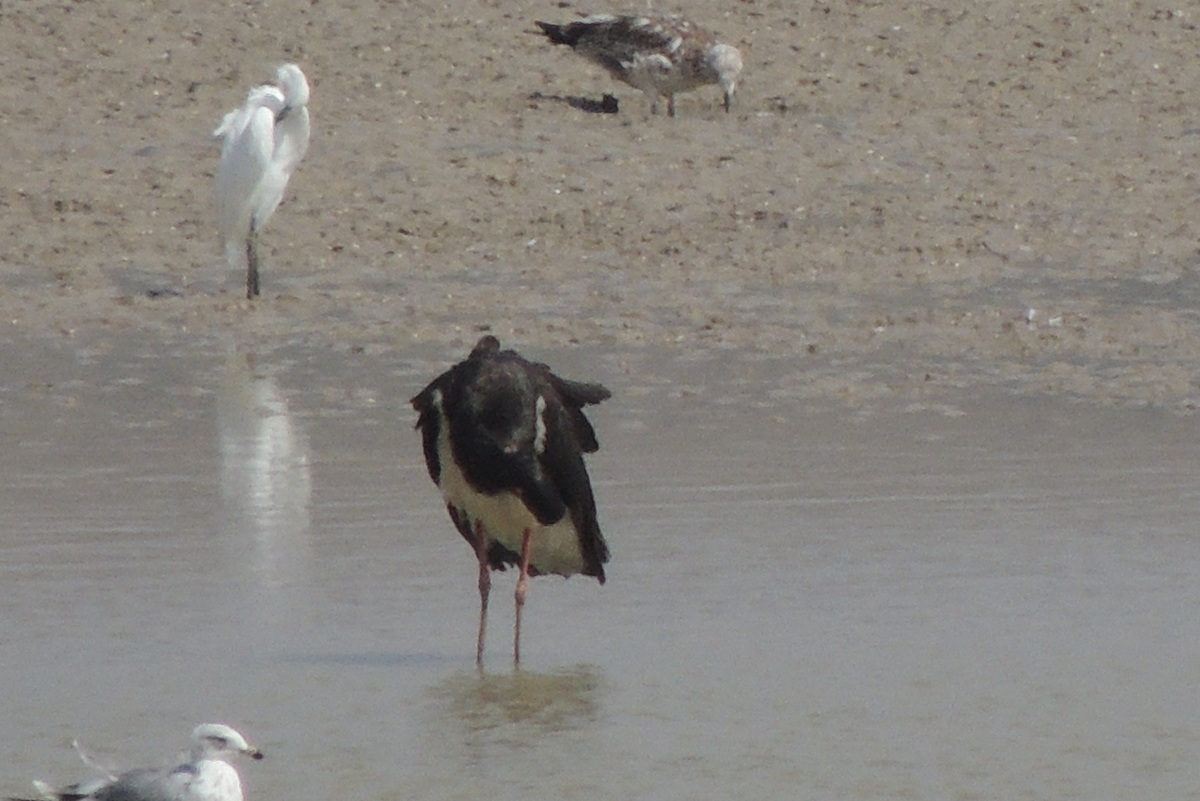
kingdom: Animalia
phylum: Chordata
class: Aves
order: Ciconiiformes
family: Ciconiidae
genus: Ciconia
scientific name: Ciconia nigra
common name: Black stork
